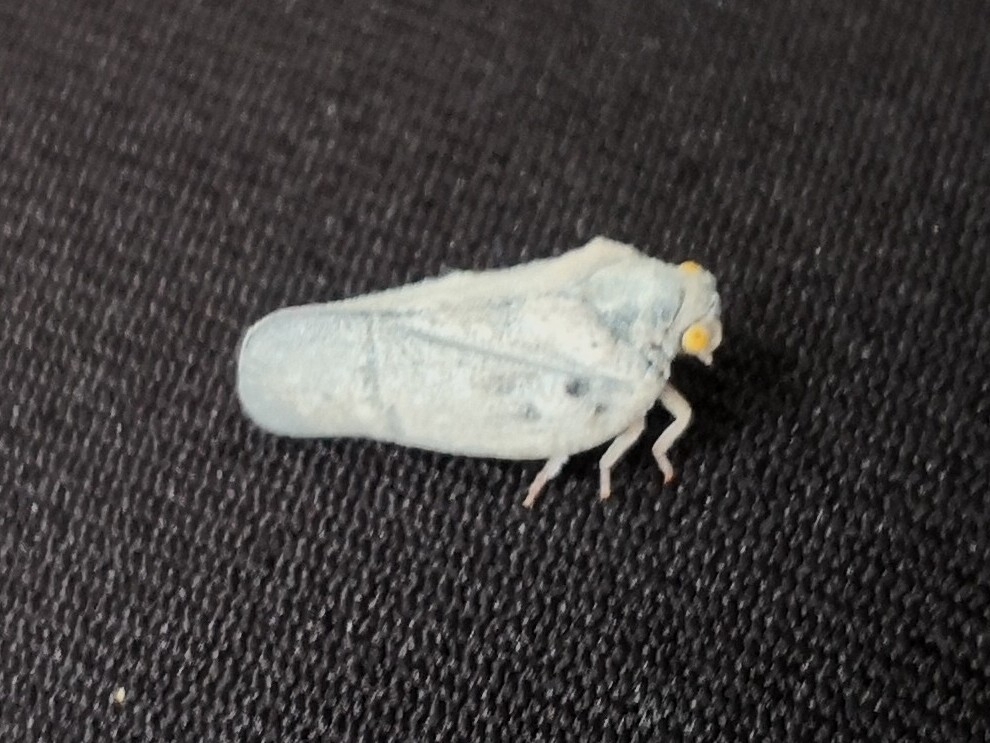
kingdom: Animalia
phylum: Arthropoda
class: Insecta
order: Hemiptera
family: Flatidae
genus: Metcalfa
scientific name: Metcalfa pruinosa
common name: Citrus flatid planthopper
